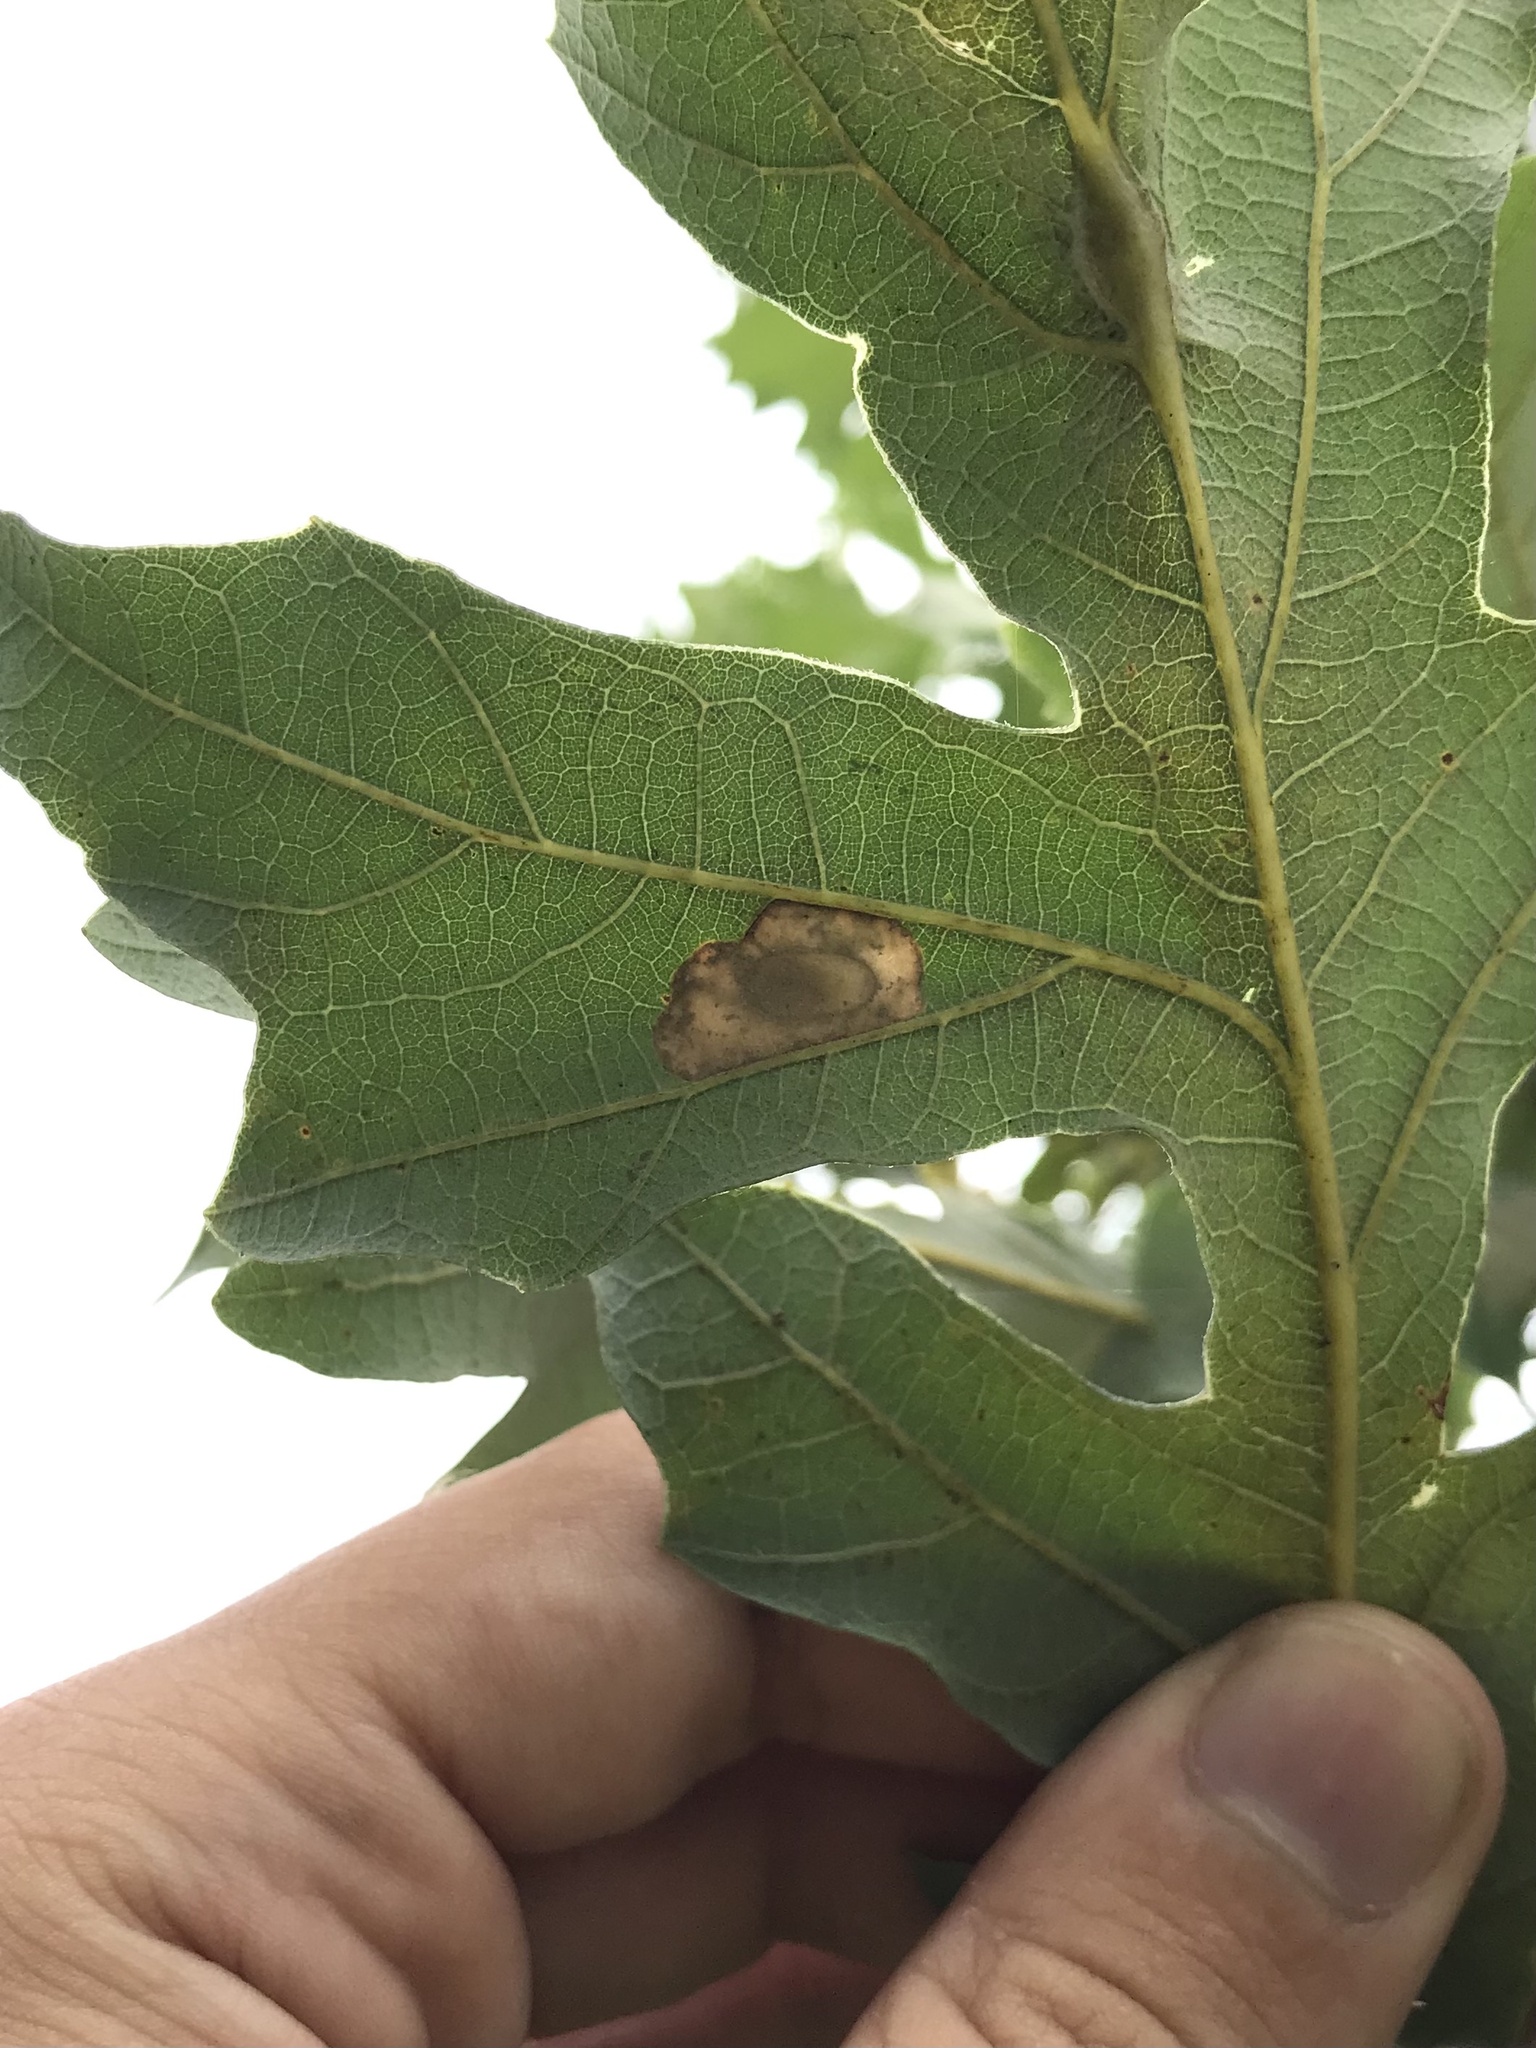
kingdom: Animalia
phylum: Arthropoda
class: Insecta
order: Lepidoptera
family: Gracillariidae
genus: Phyllonorycter
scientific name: Phyllonorycter basistrigella
